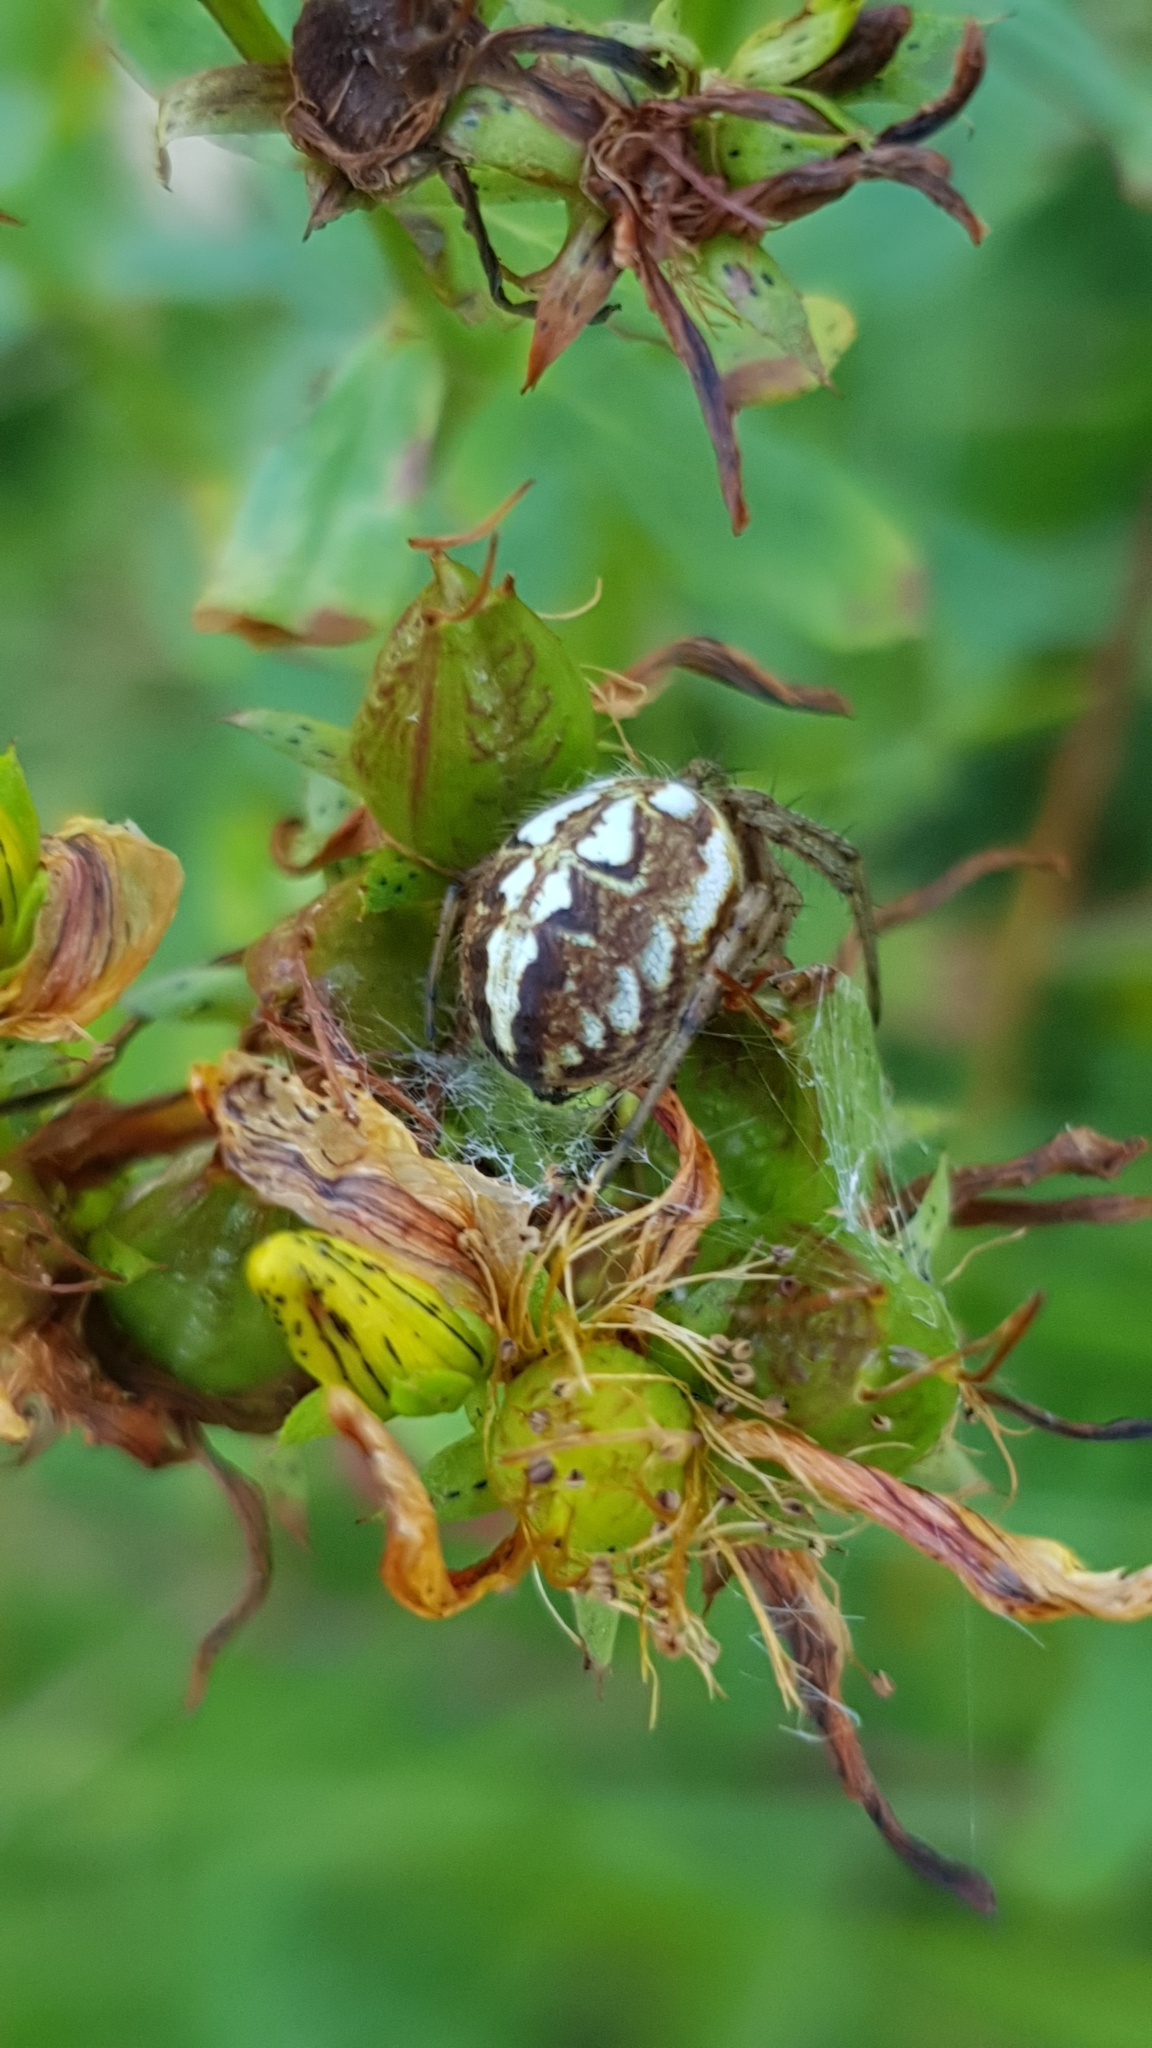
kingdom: Animalia
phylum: Arthropoda
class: Arachnida
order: Araneae
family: Araneidae
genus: Neoscona
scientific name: Neoscona adianta
